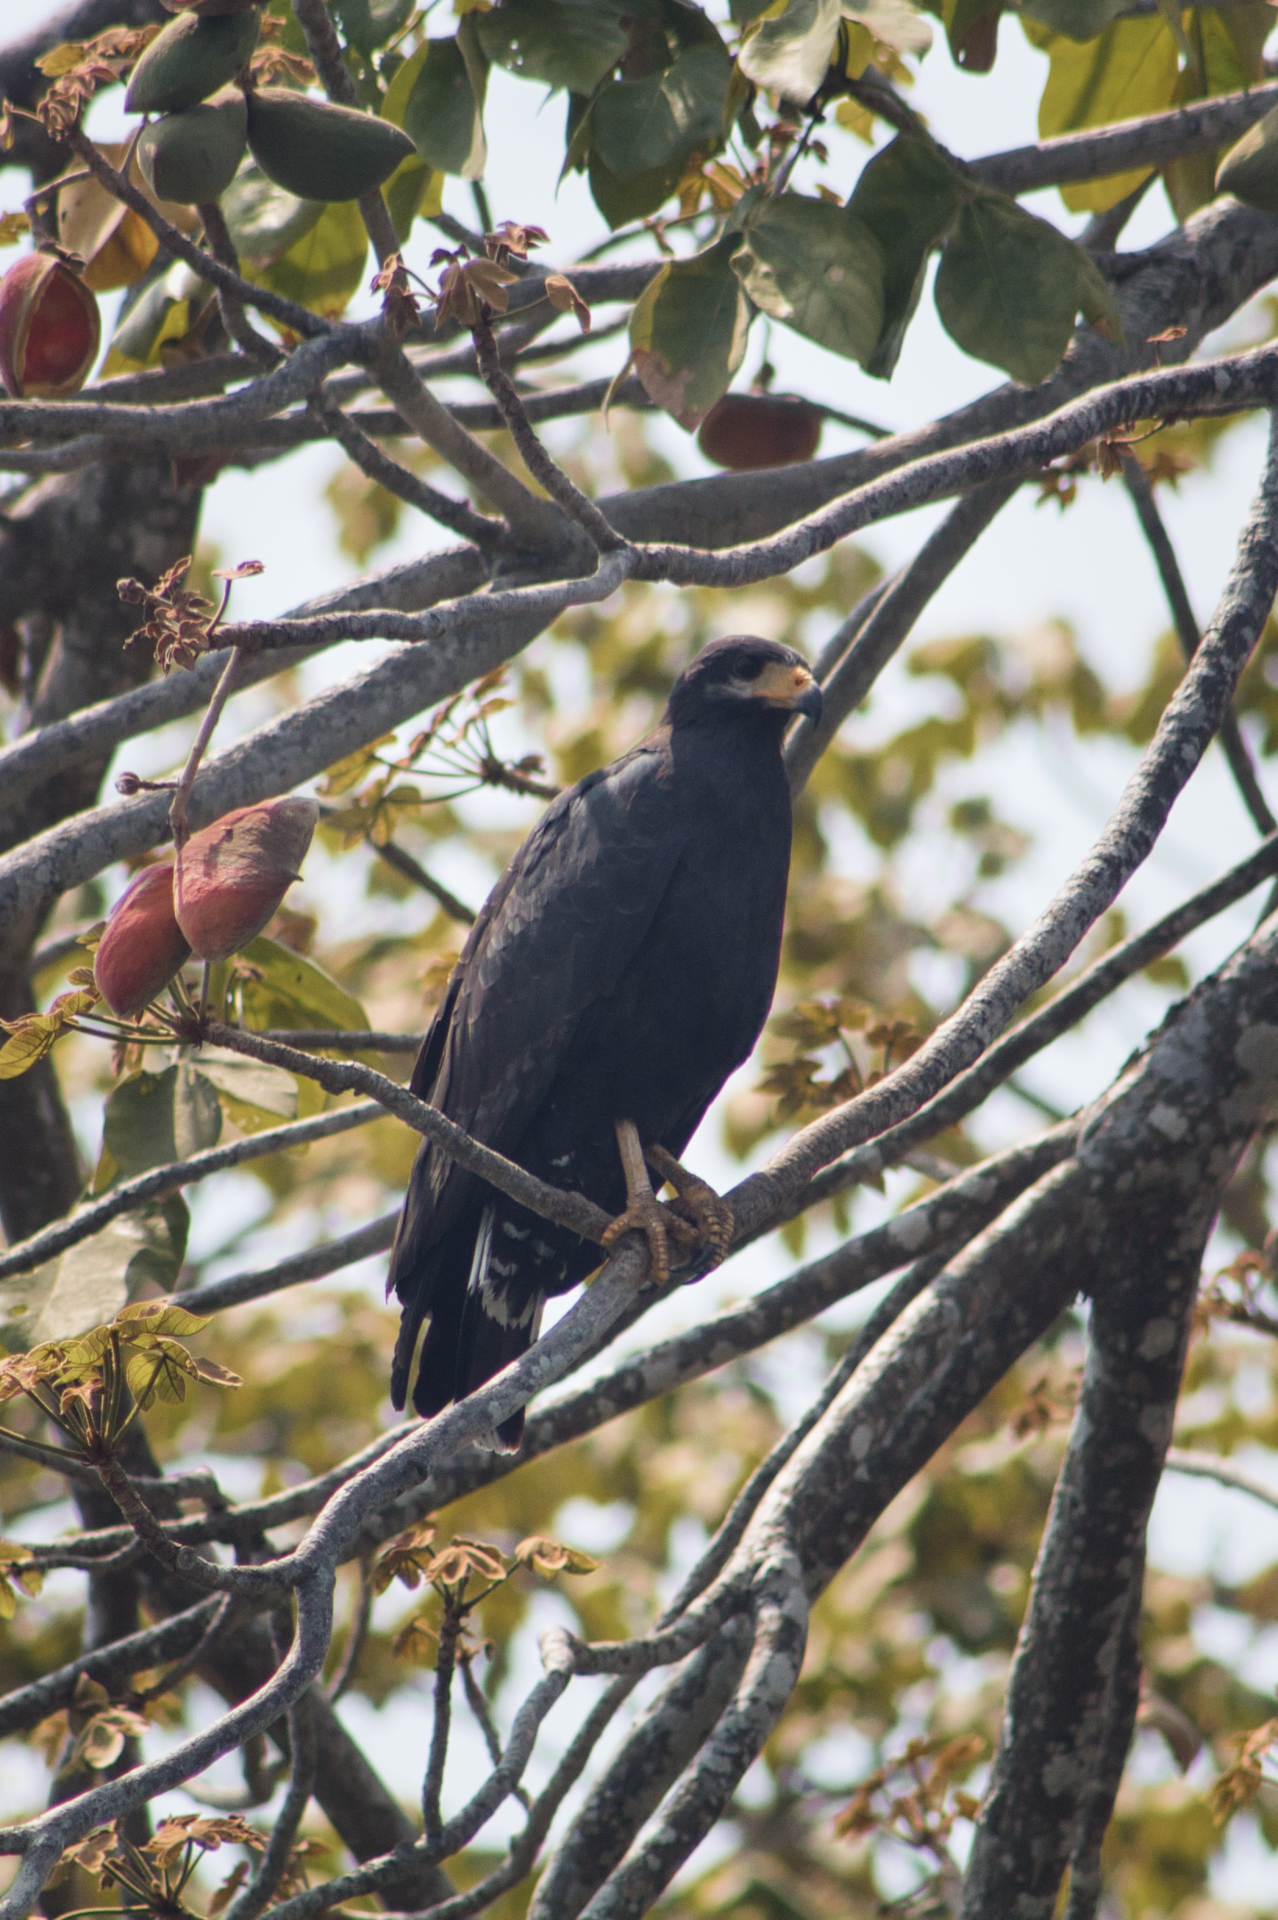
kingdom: Animalia
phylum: Chordata
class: Aves
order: Accipitriformes
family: Accipitridae
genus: Buteogallus
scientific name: Buteogallus anthracinus
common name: Common black hawk
